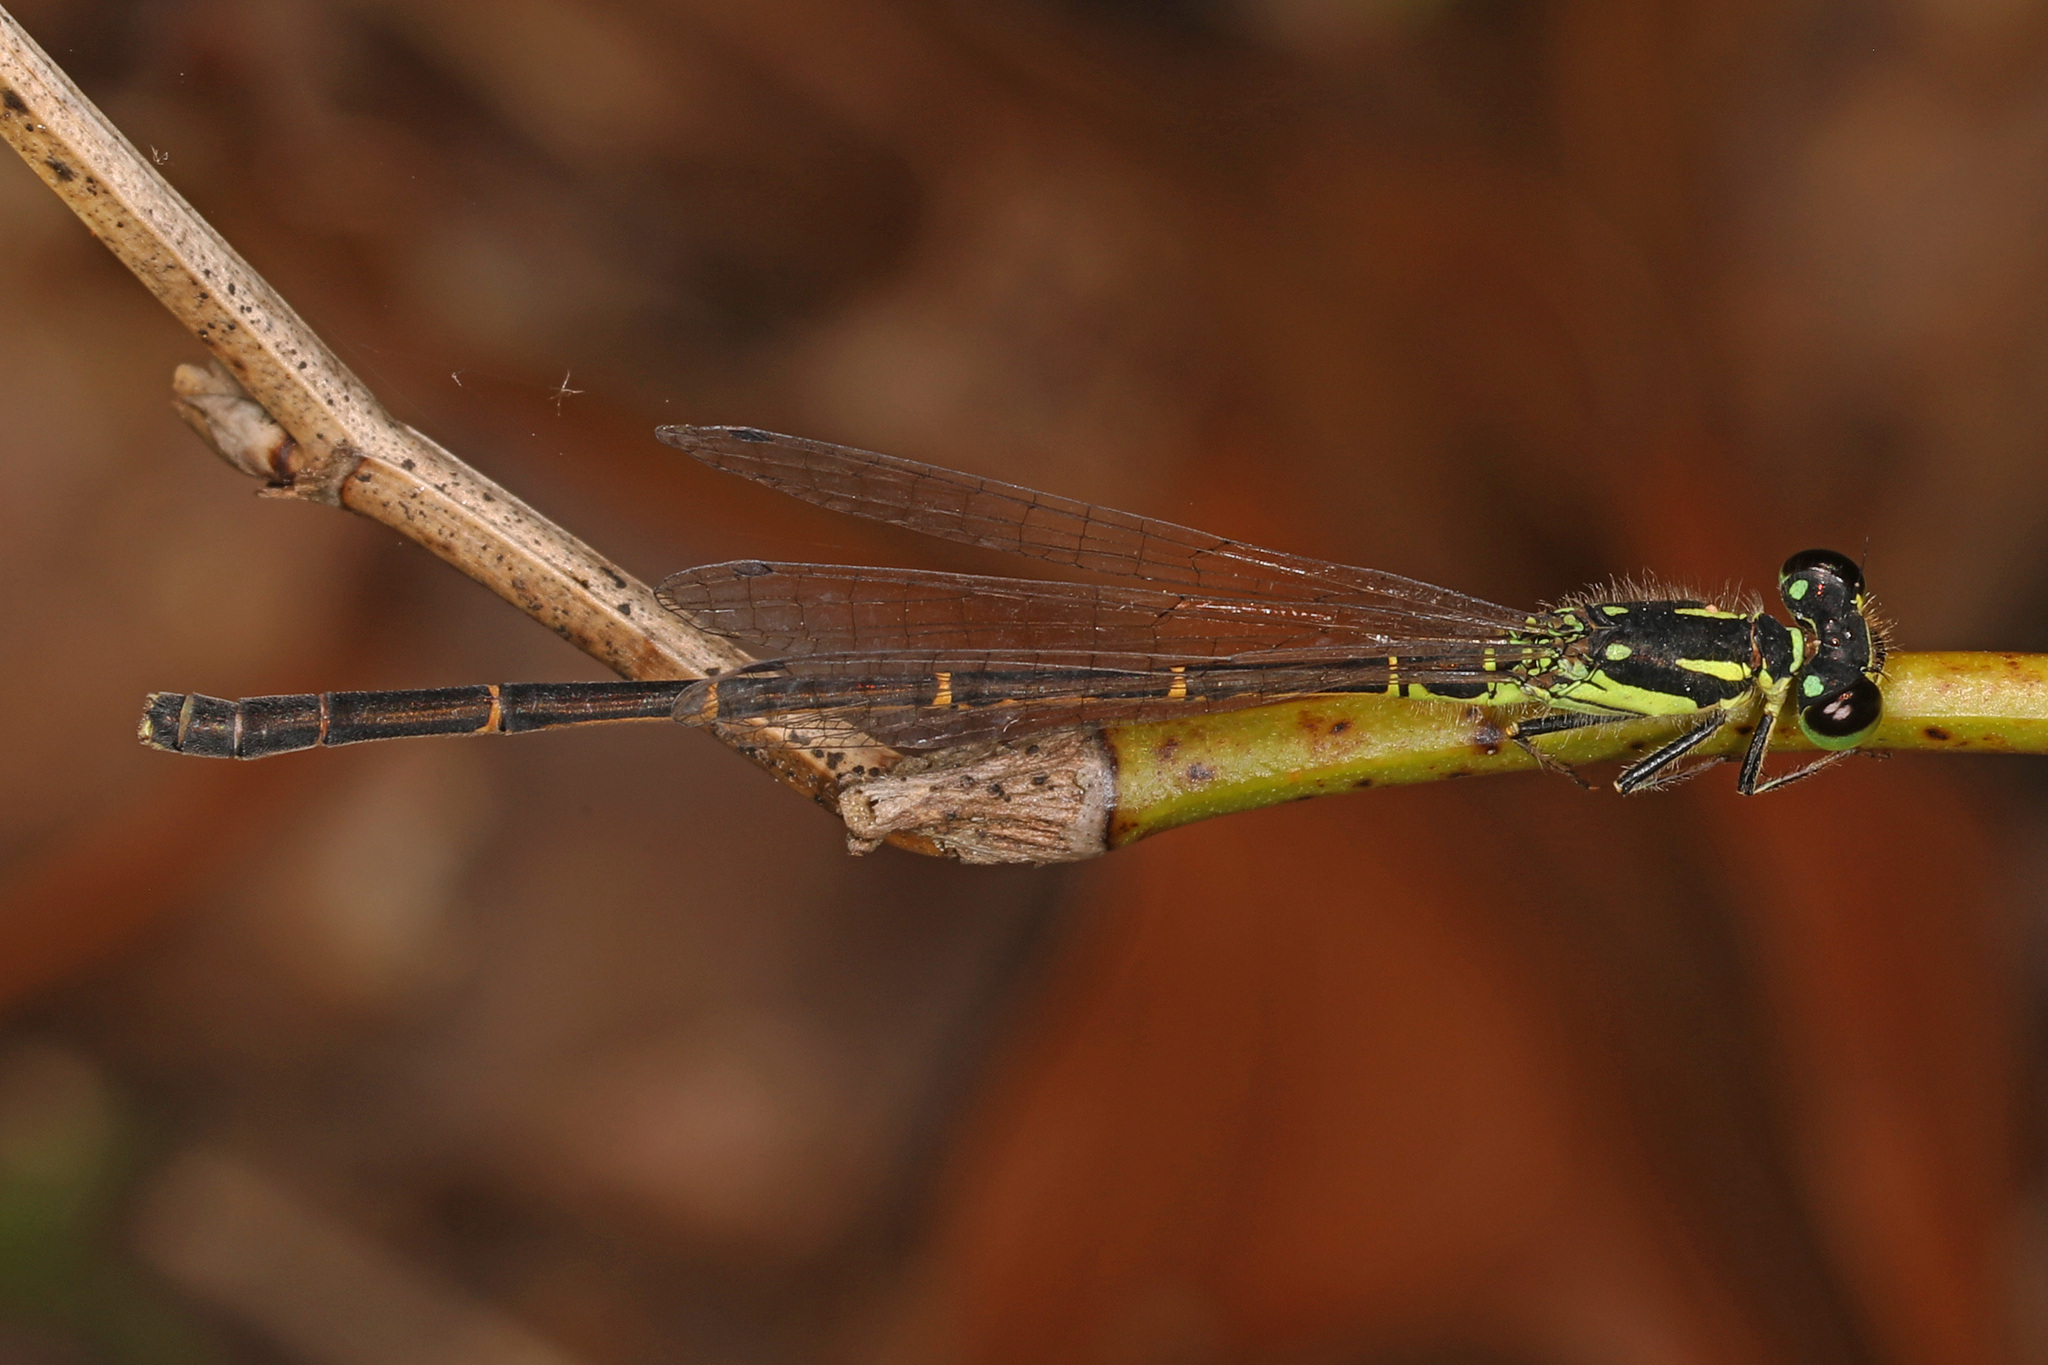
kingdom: Animalia
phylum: Arthropoda
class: Insecta
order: Odonata
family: Coenagrionidae
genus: Ischnura
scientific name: Ischnura posita
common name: Fragile forktail
